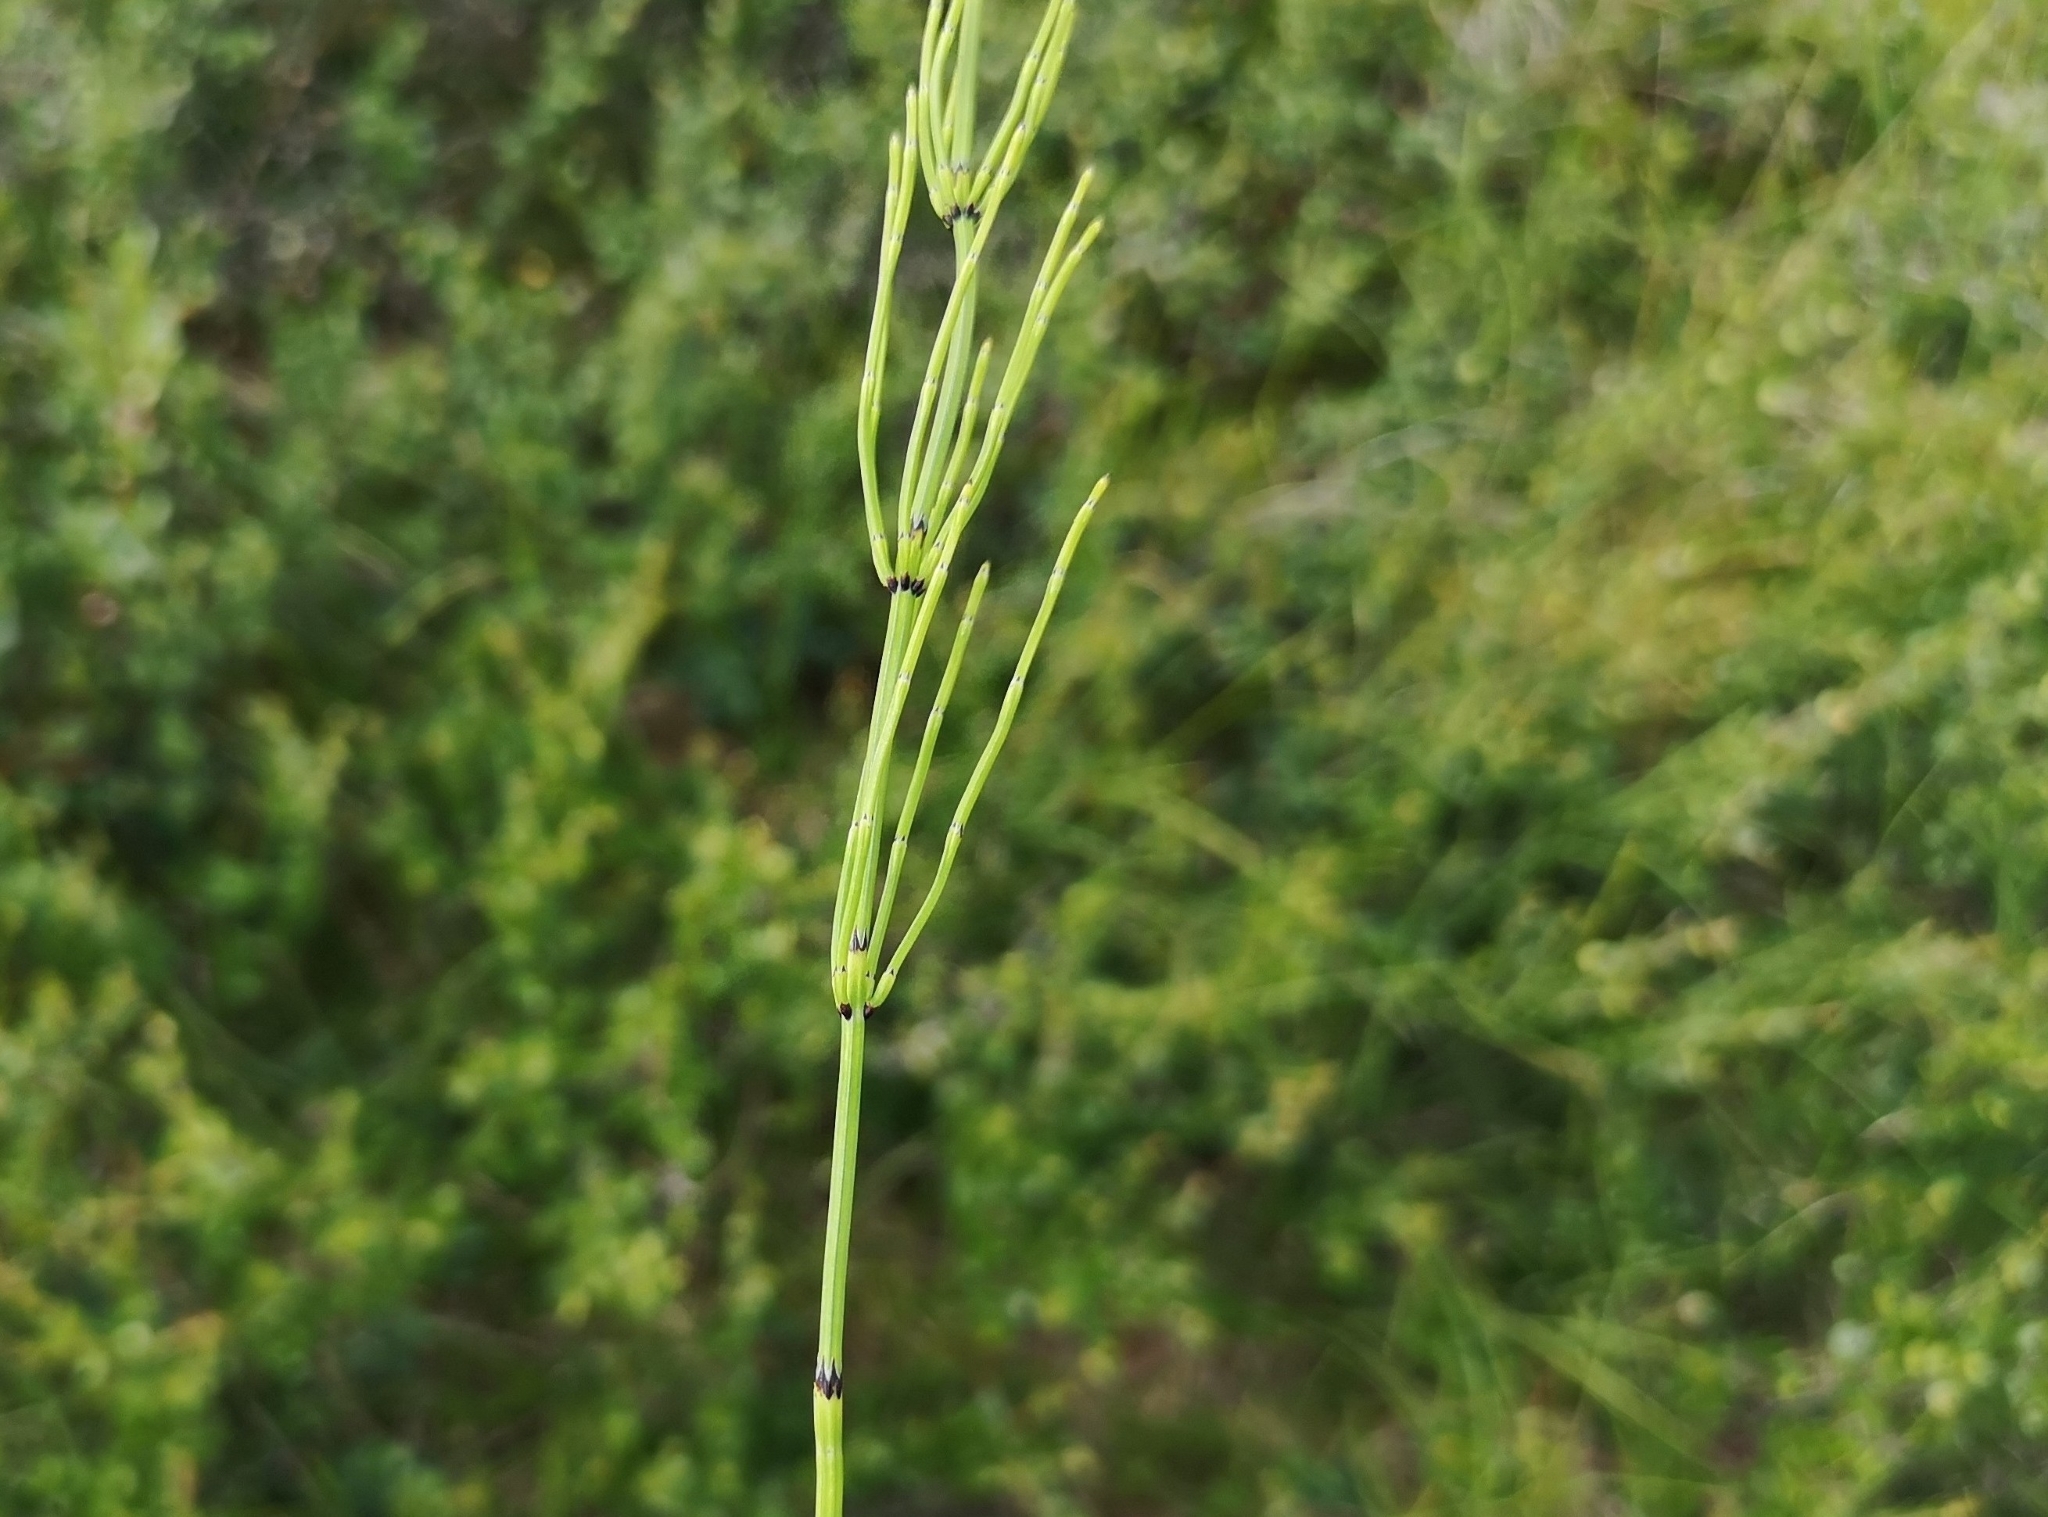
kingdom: Plantae
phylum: Tracheophyta
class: Polypodiopsida
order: Equisetales
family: Equisetaceae
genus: Equisetum
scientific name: Equisetum palustre
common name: Marsh horsetail
